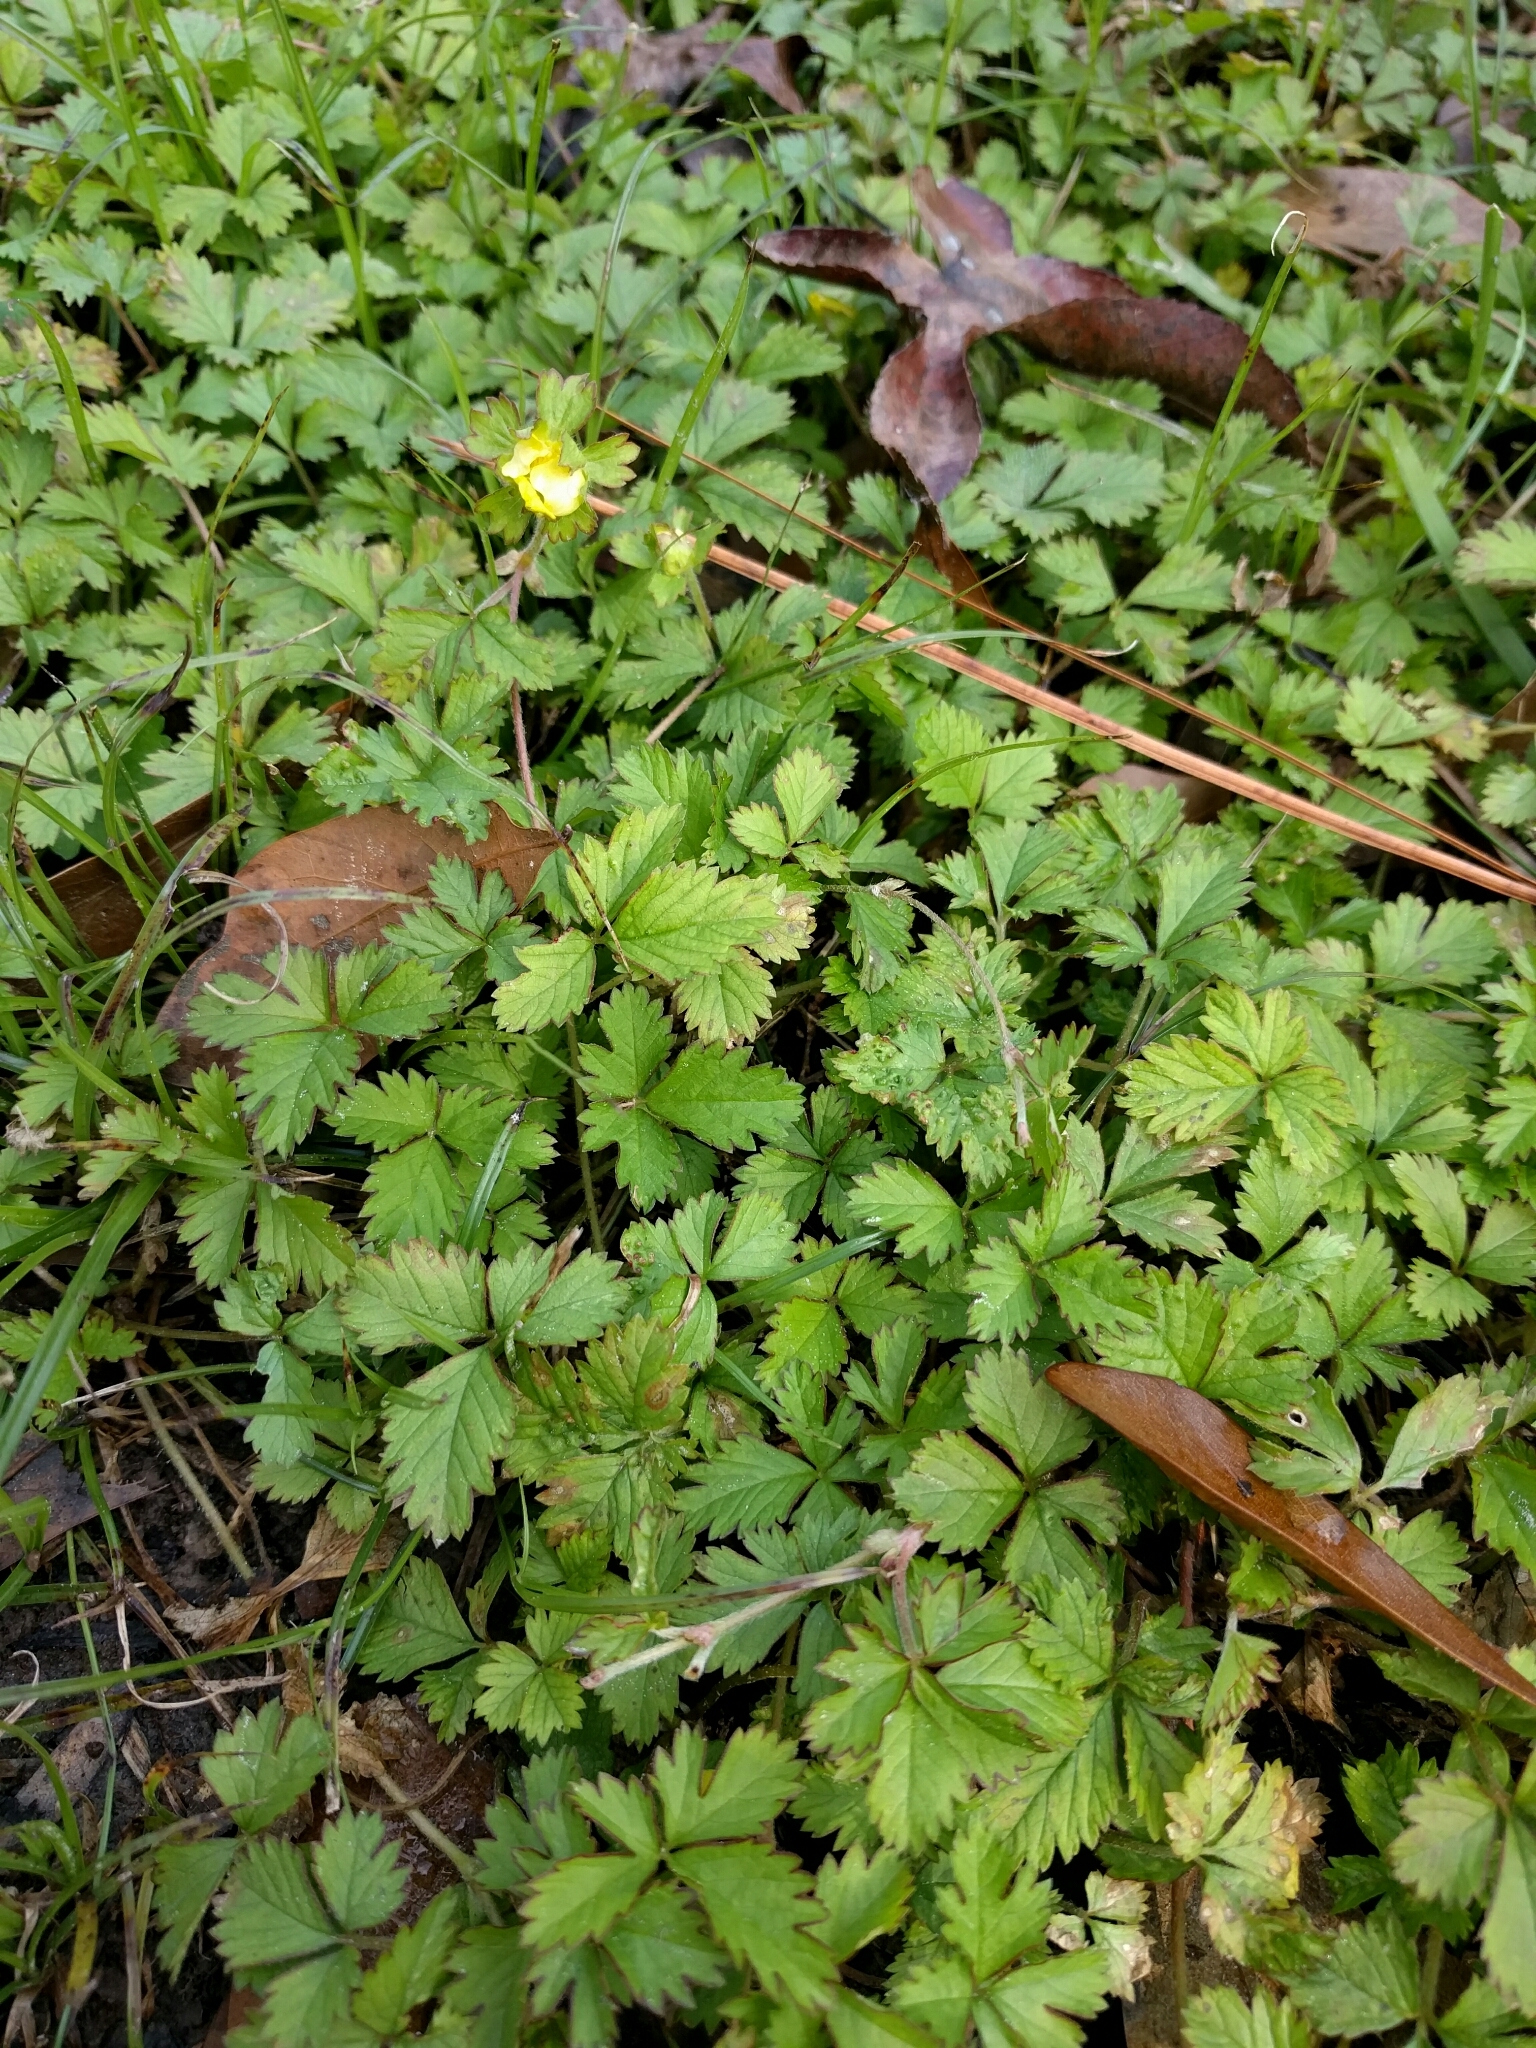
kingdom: Plantae
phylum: Tracheophyta
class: Magnoliopsida
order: Rosales
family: Rosaceae
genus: Potentilla
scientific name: Potentilla indica
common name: Yellow-flowered strawberry
